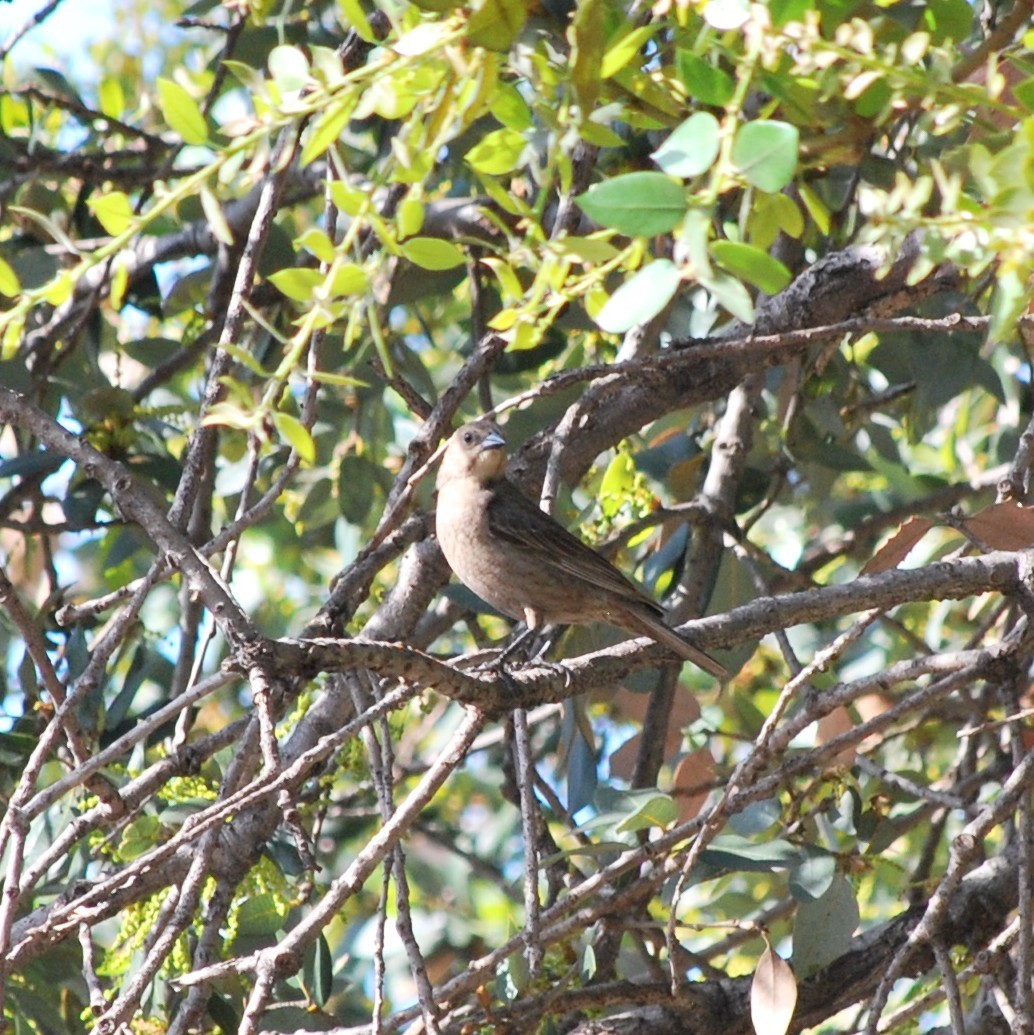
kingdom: Animalia
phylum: Chordata
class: Aves
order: Passeriformes
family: Icteridae
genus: Molothrus
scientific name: Molothrus ater
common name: Brown-headed cowbird
